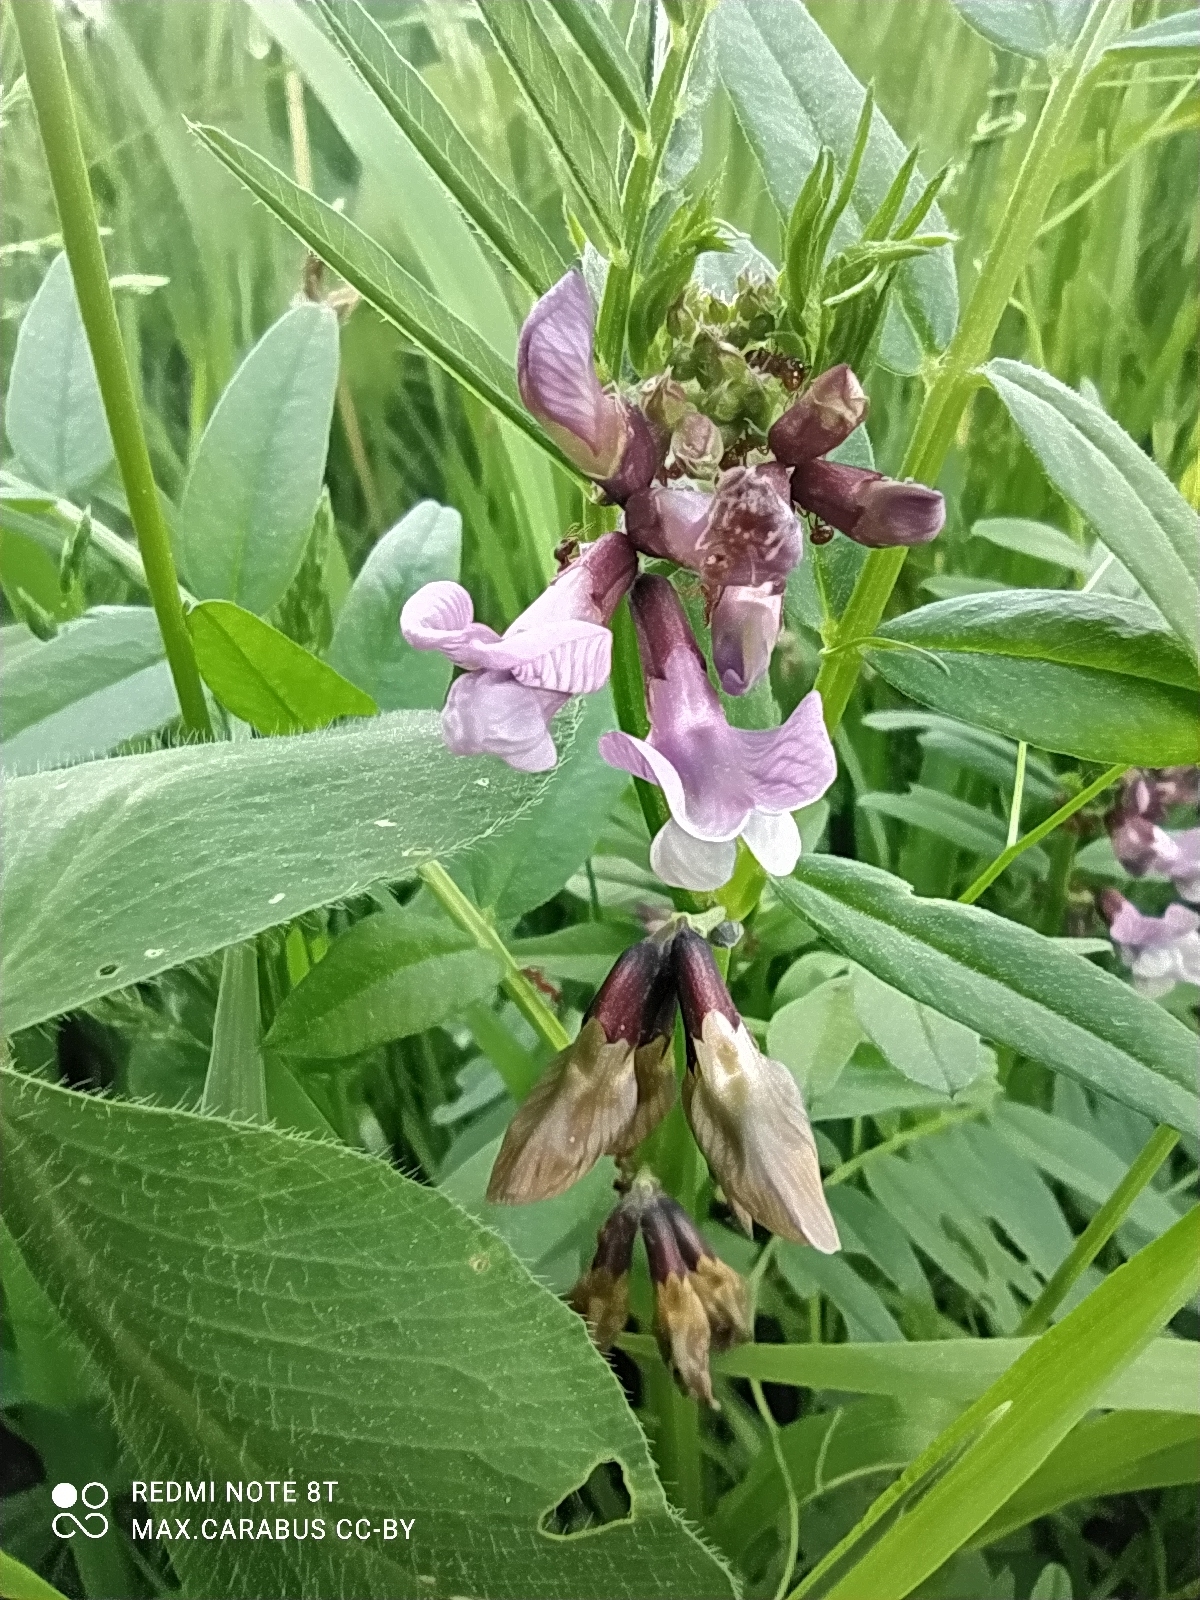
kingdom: Plantae
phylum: Tracheophyta
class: Magnoliopsida
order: Fabales
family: Fabaceae
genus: Vicia
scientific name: Vicia sepium
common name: Bush vetch
